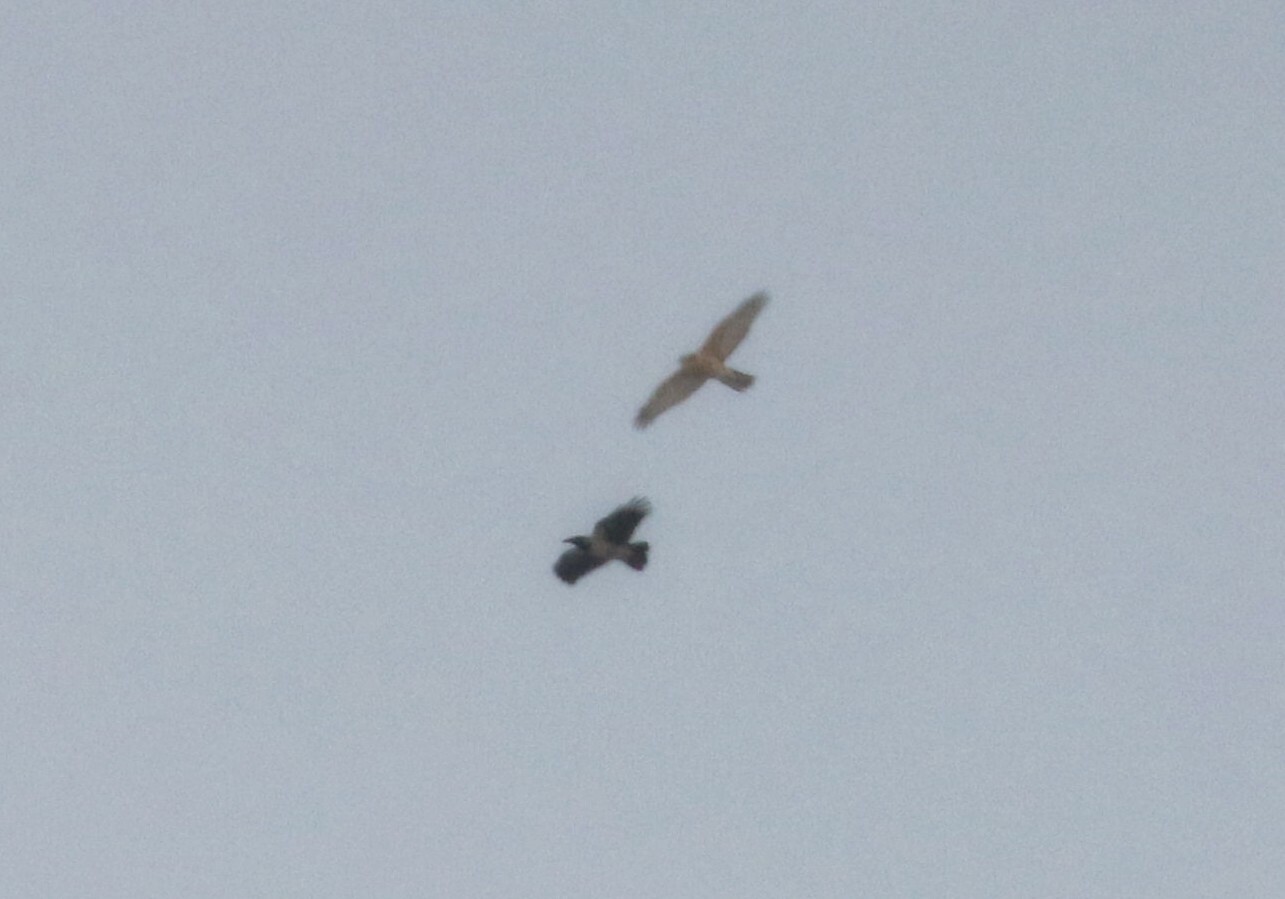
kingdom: Animalia
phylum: Chordata
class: Aves
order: Accipitriformes
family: Accipitridae
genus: Accipiter
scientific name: Accipiter gentilis
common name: Northern goshawk
